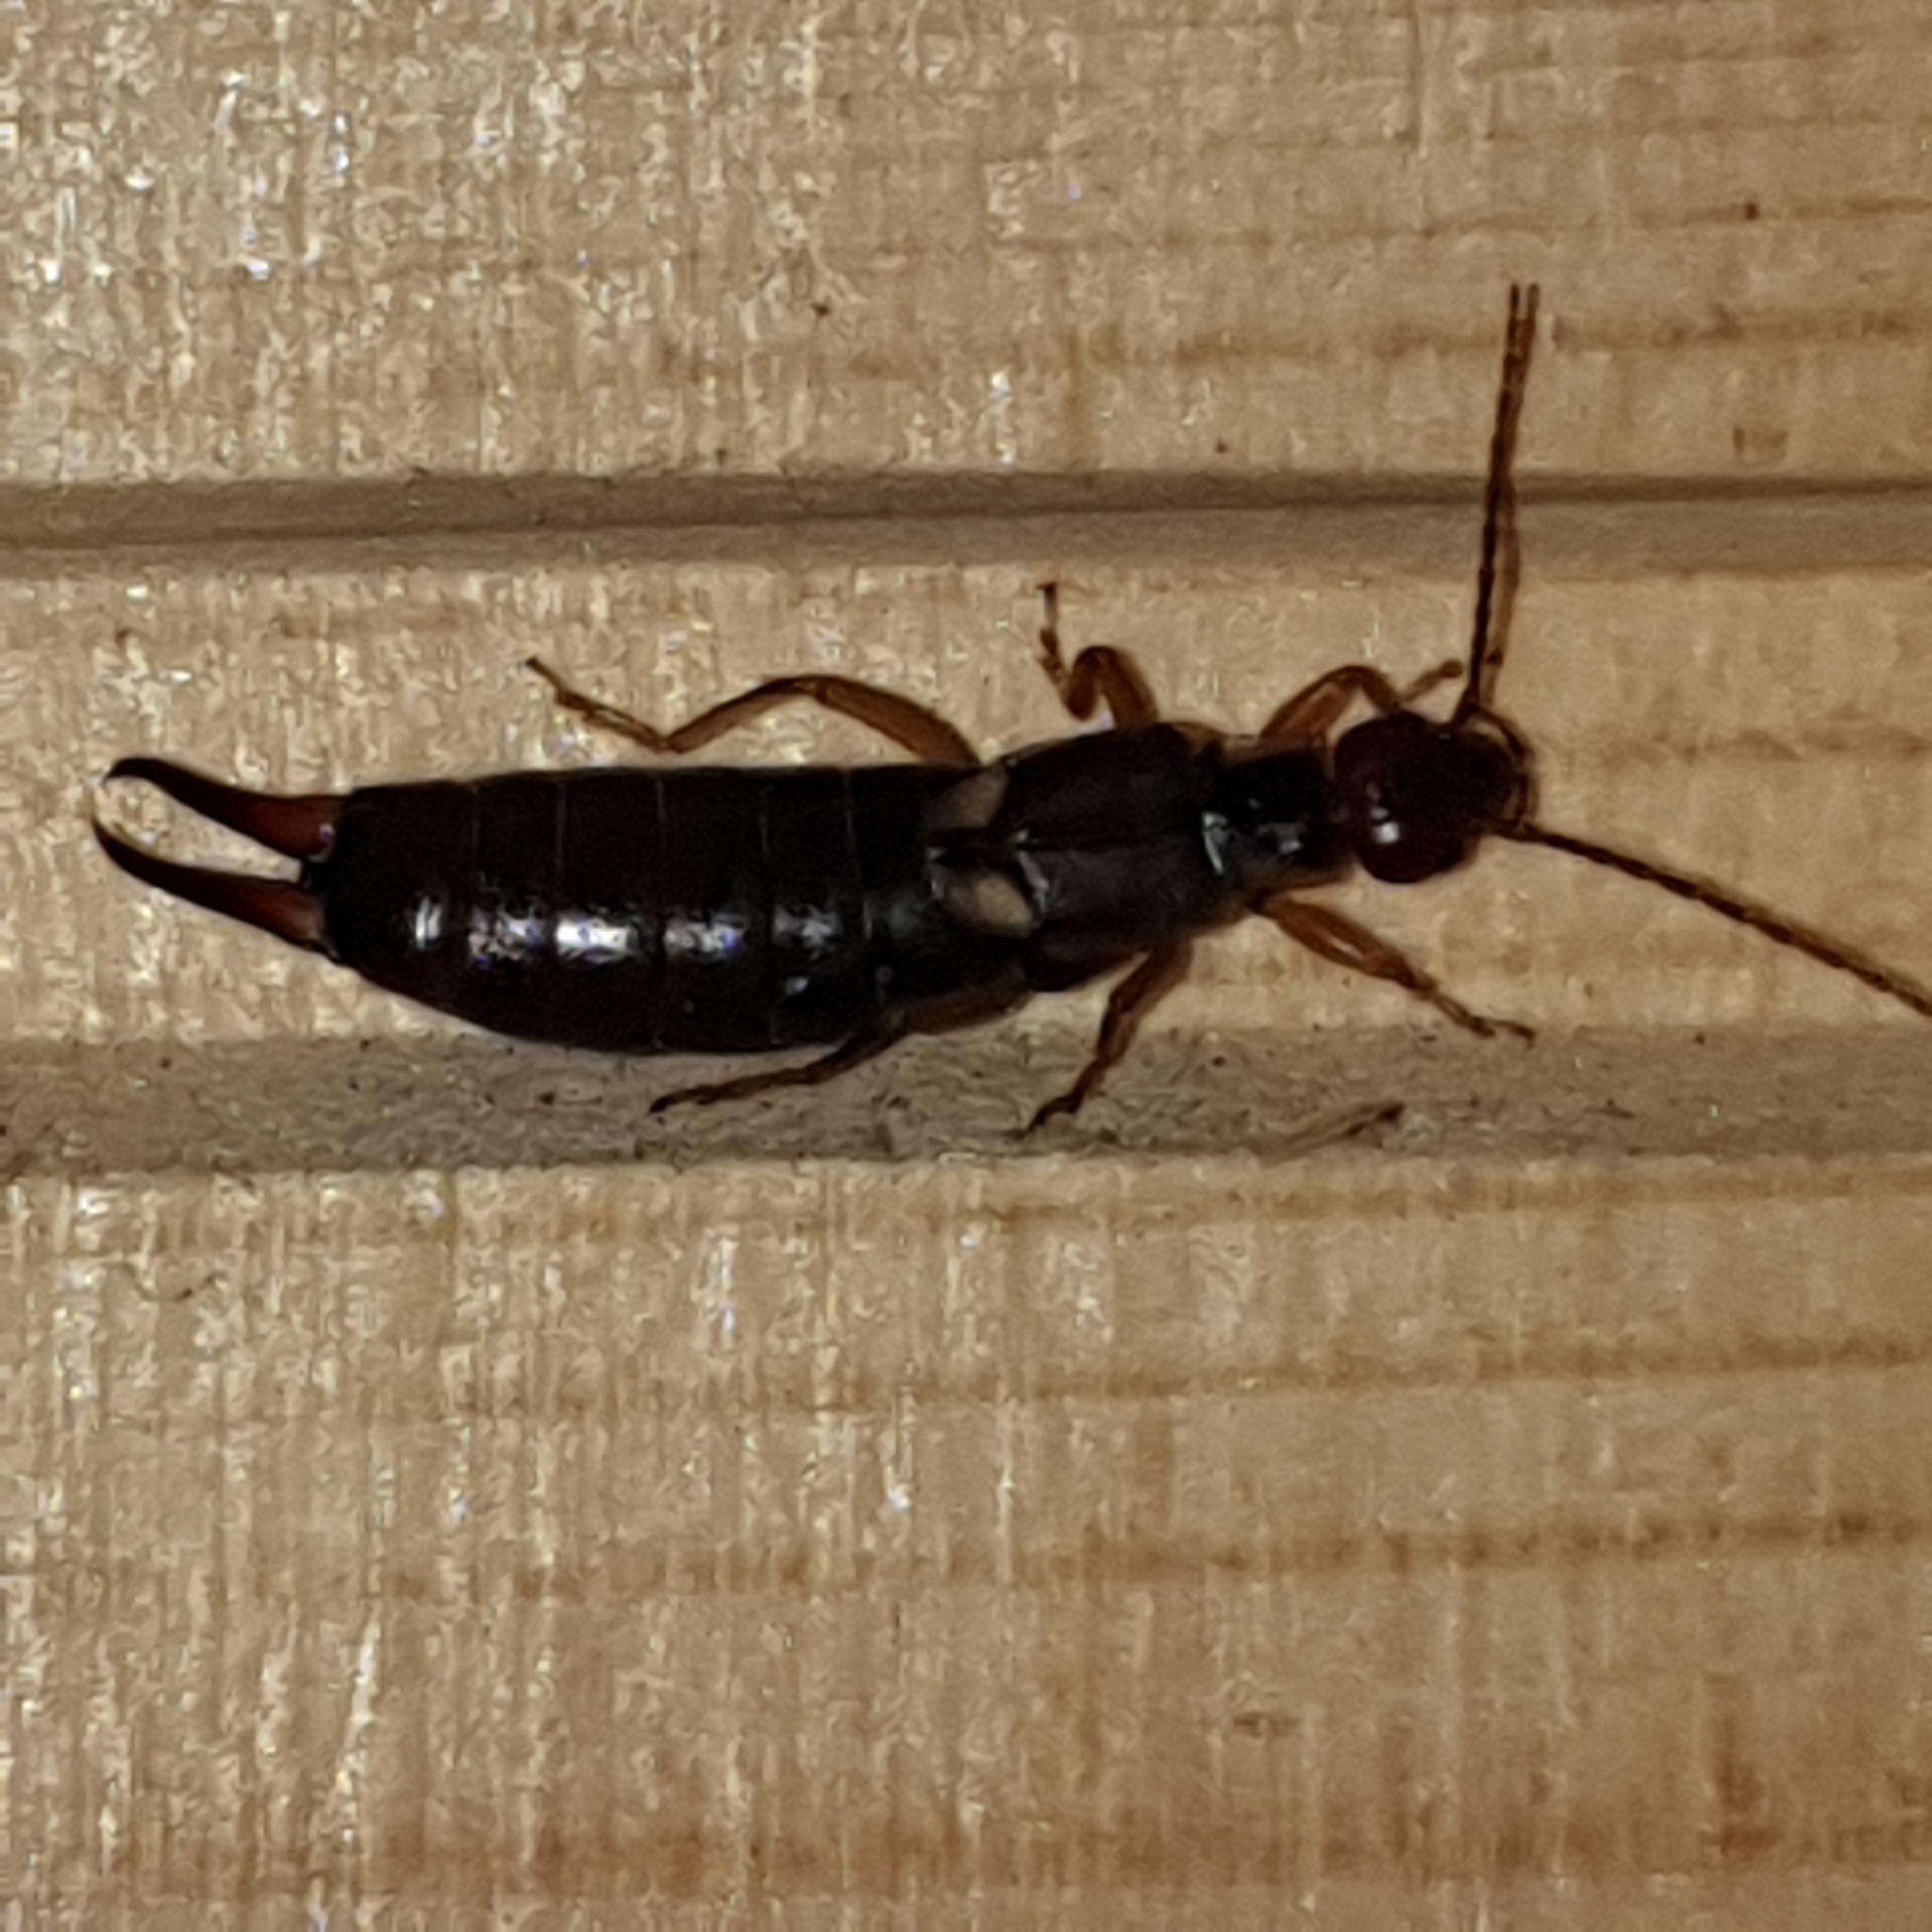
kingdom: Animalia
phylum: Arthropoda
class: Insecta
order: Dermaptera
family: Forficulidae
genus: Forficula
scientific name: Forficula
